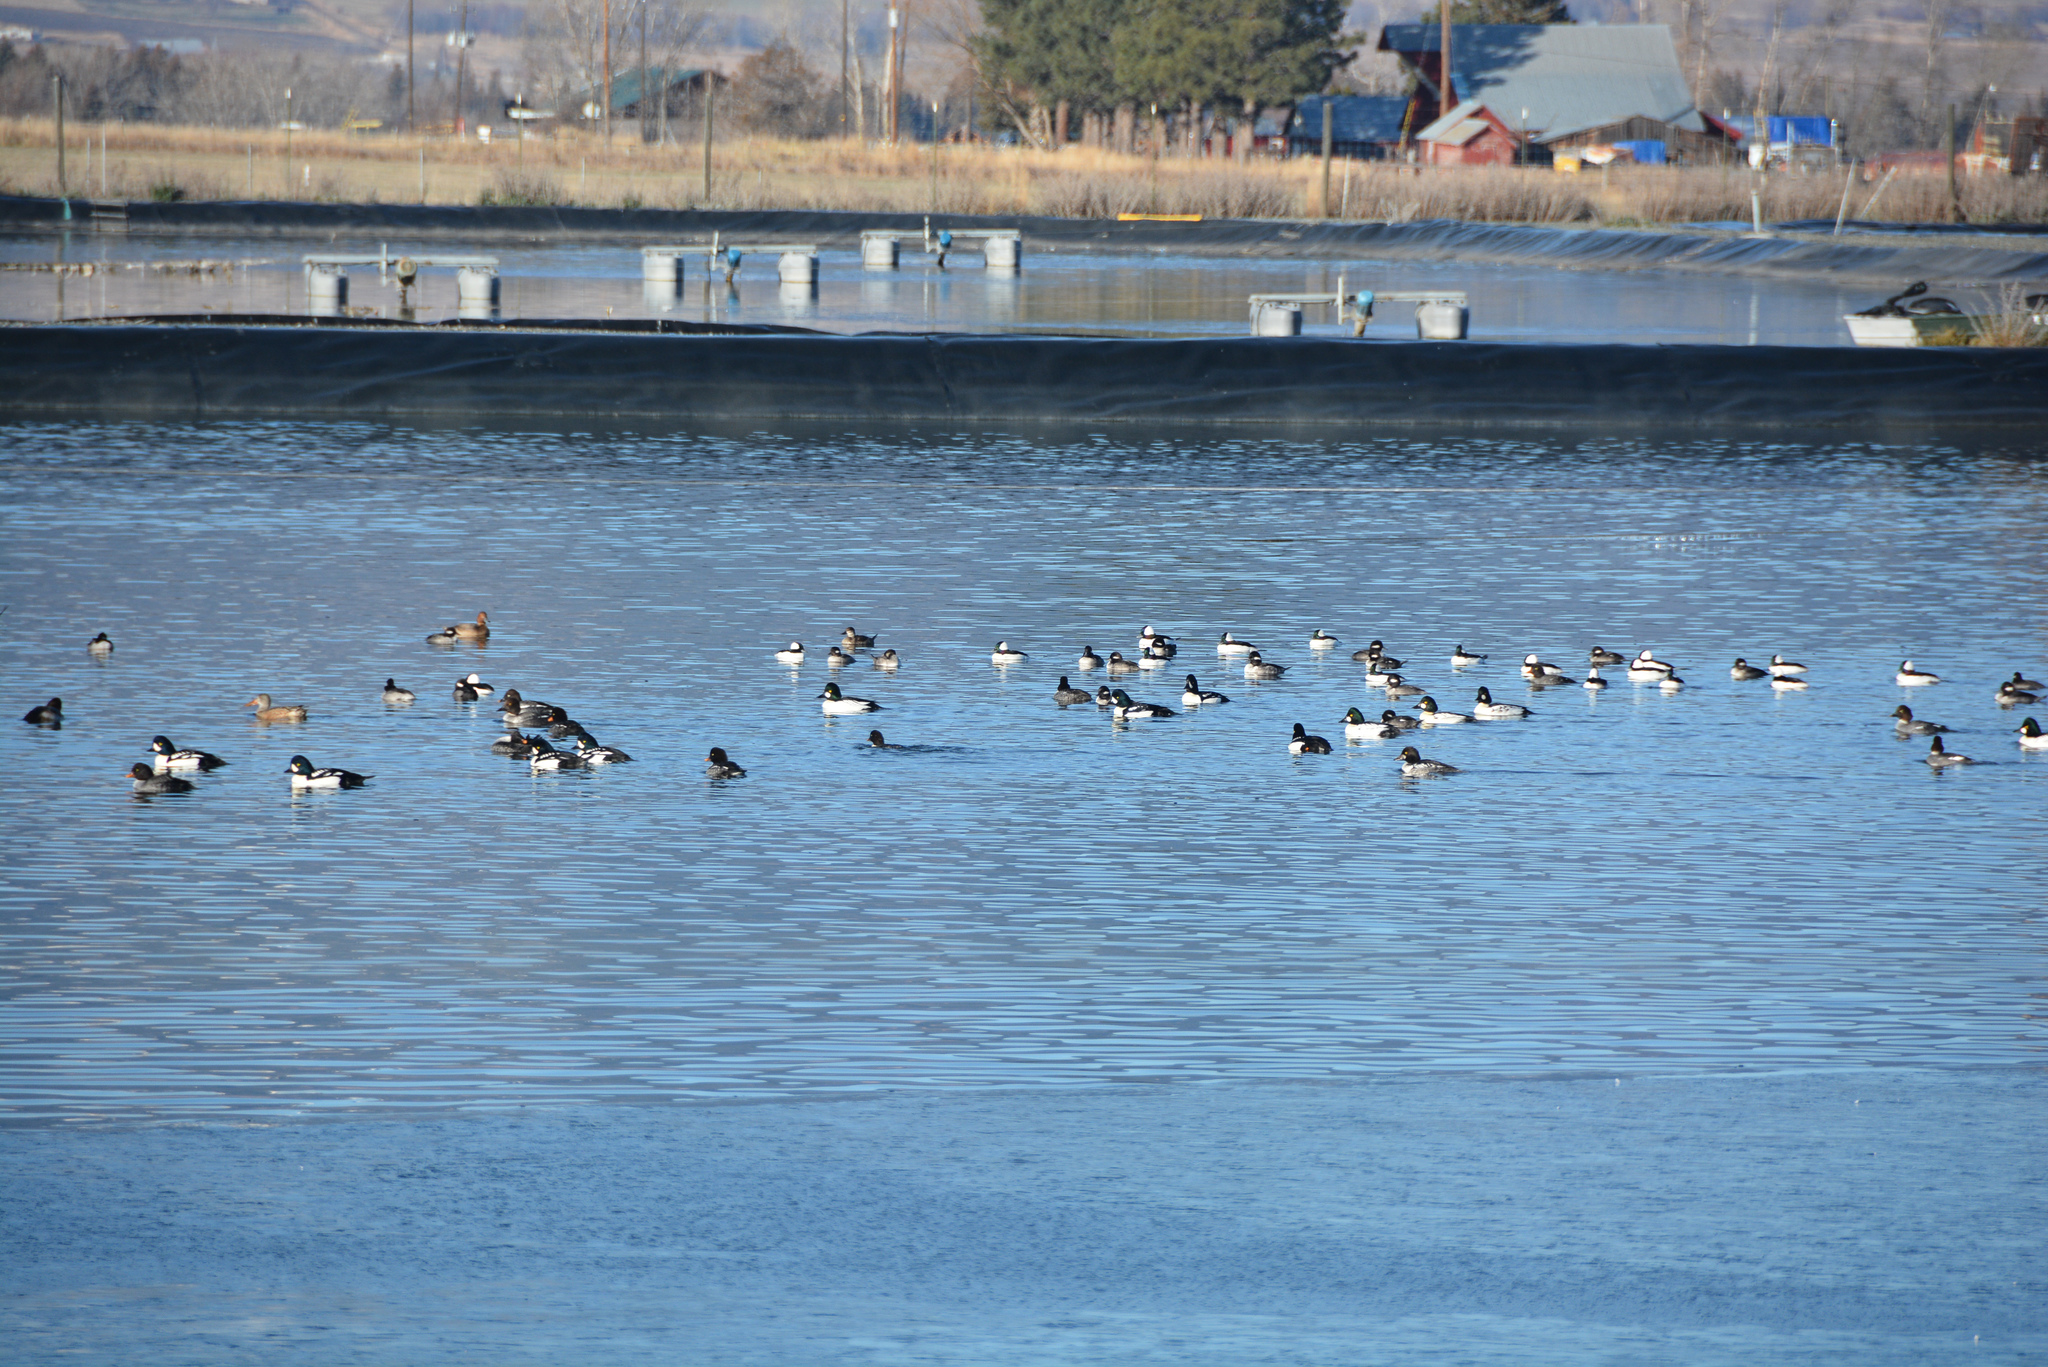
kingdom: Animalia
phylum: Chordata
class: Aves
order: Anseriformes
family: Anatidae
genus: Bucephala
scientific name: Bucephala clangula
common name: Common goldeneye
